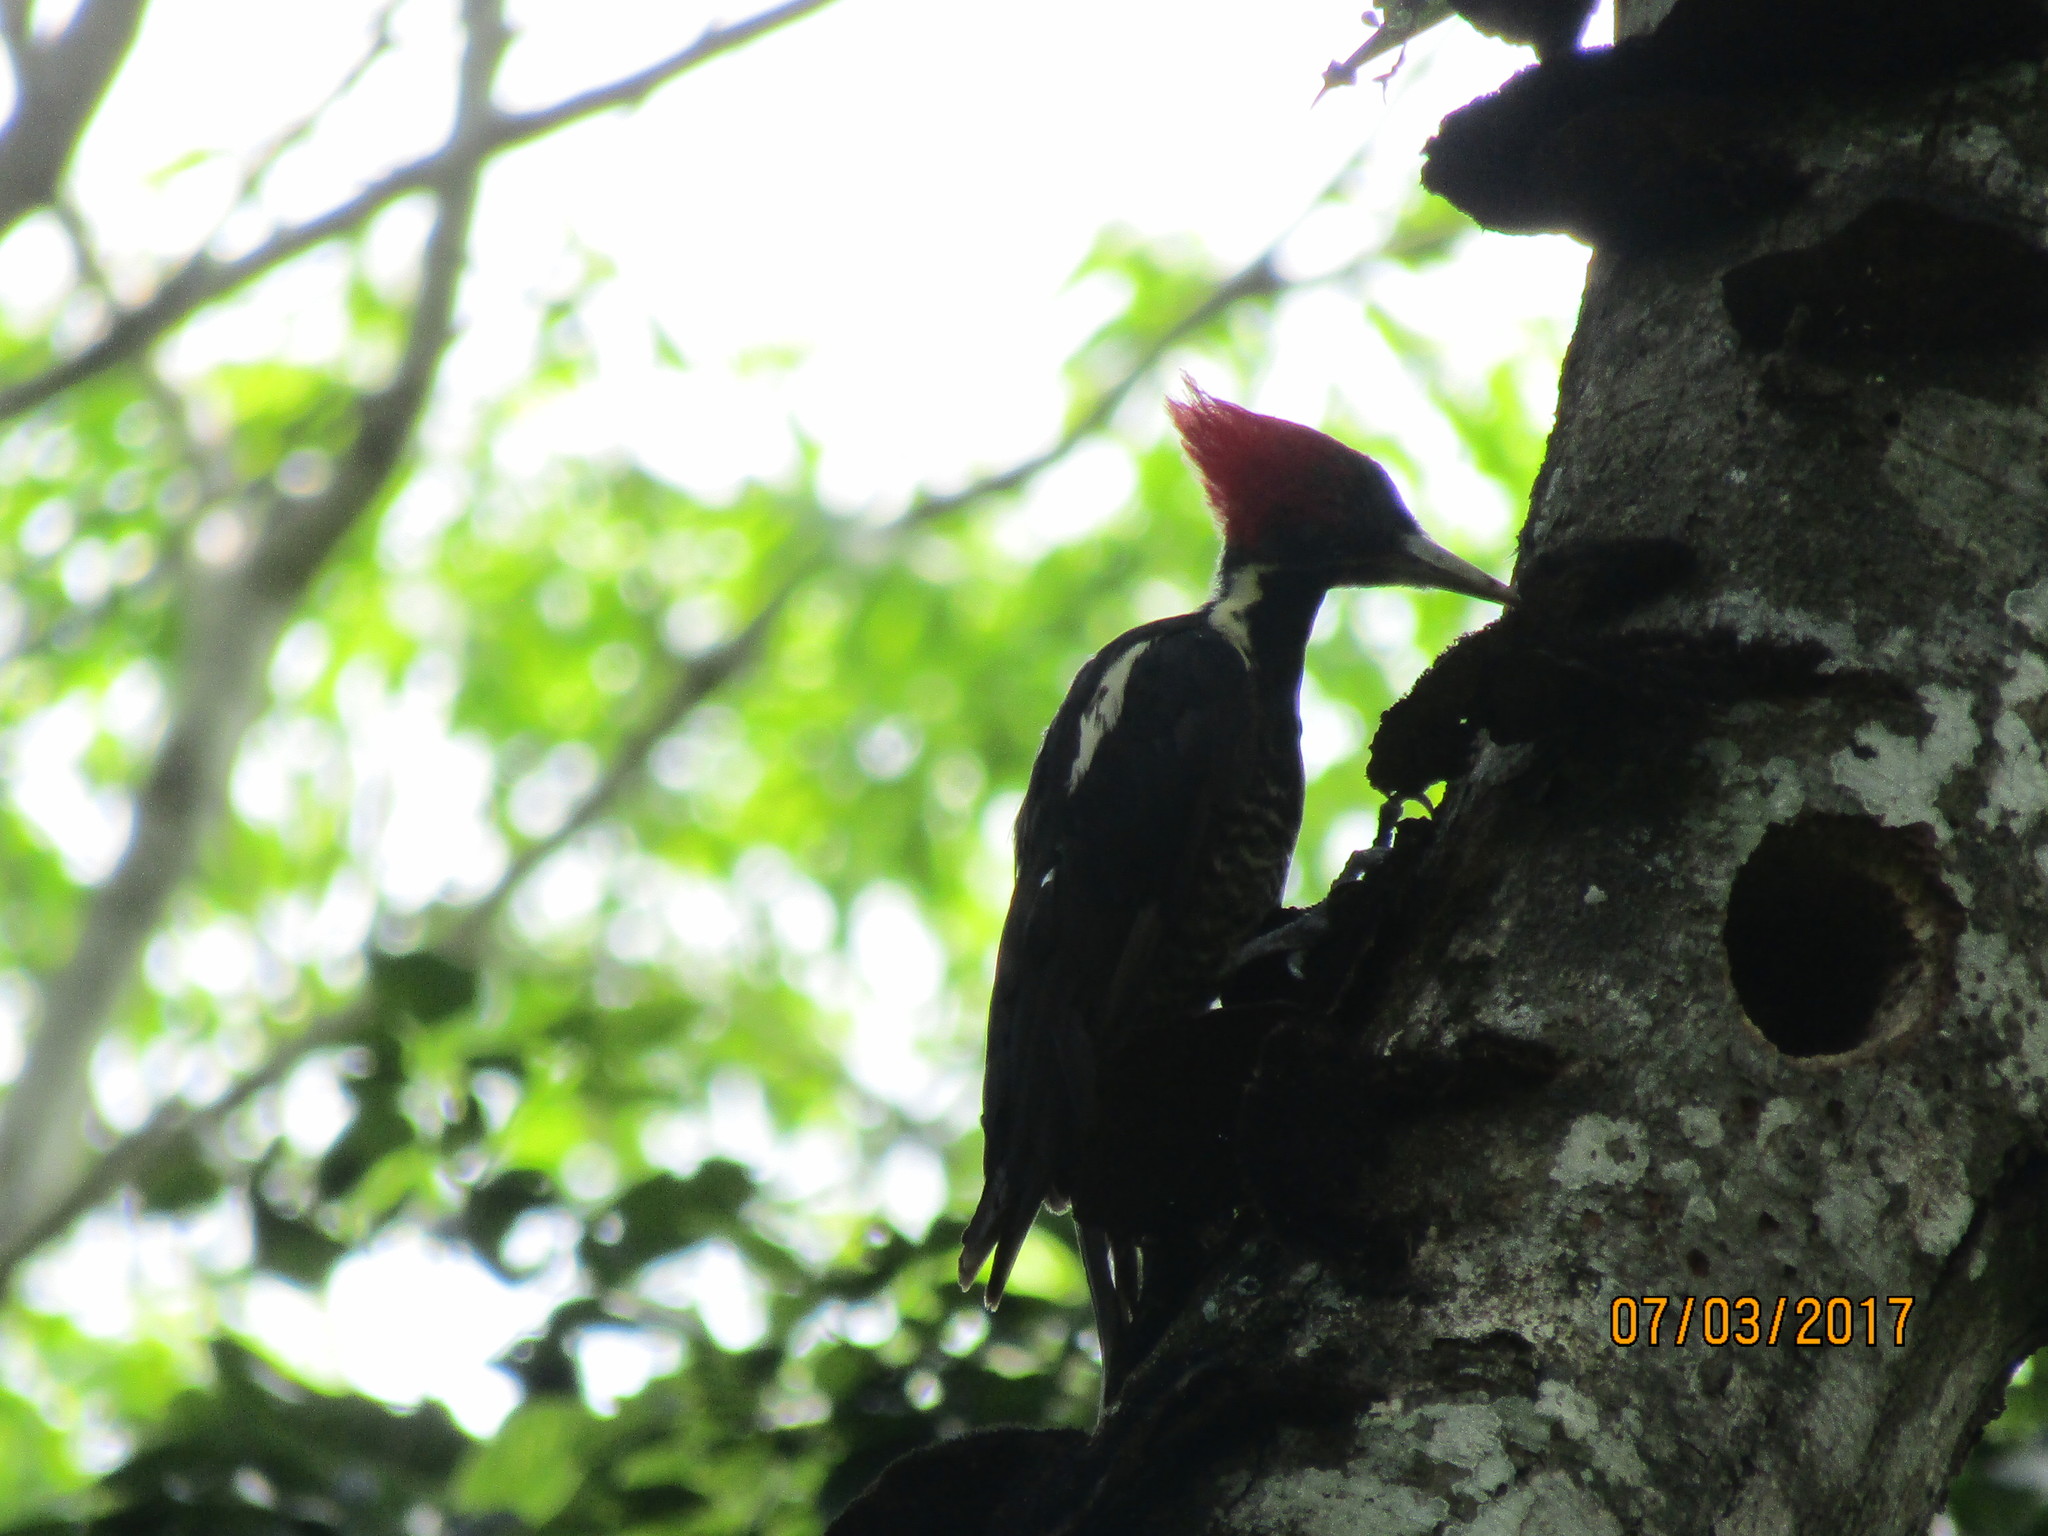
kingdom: Animalia
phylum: Chordata
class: Aves
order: Piciformes
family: Picidae
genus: Dryocopus
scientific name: Dryocopus lineatus
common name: Lineated woodpecker
